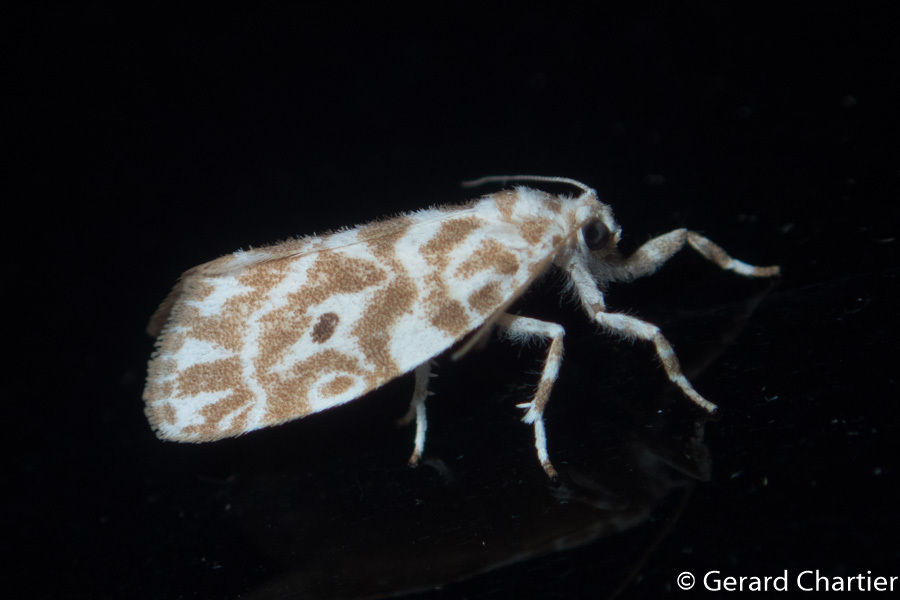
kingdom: Animalia
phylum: Arthropoda
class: Insecta
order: Lepidoptera
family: Erebidae
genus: Cabarda
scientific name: Cabarda nigripuncta
